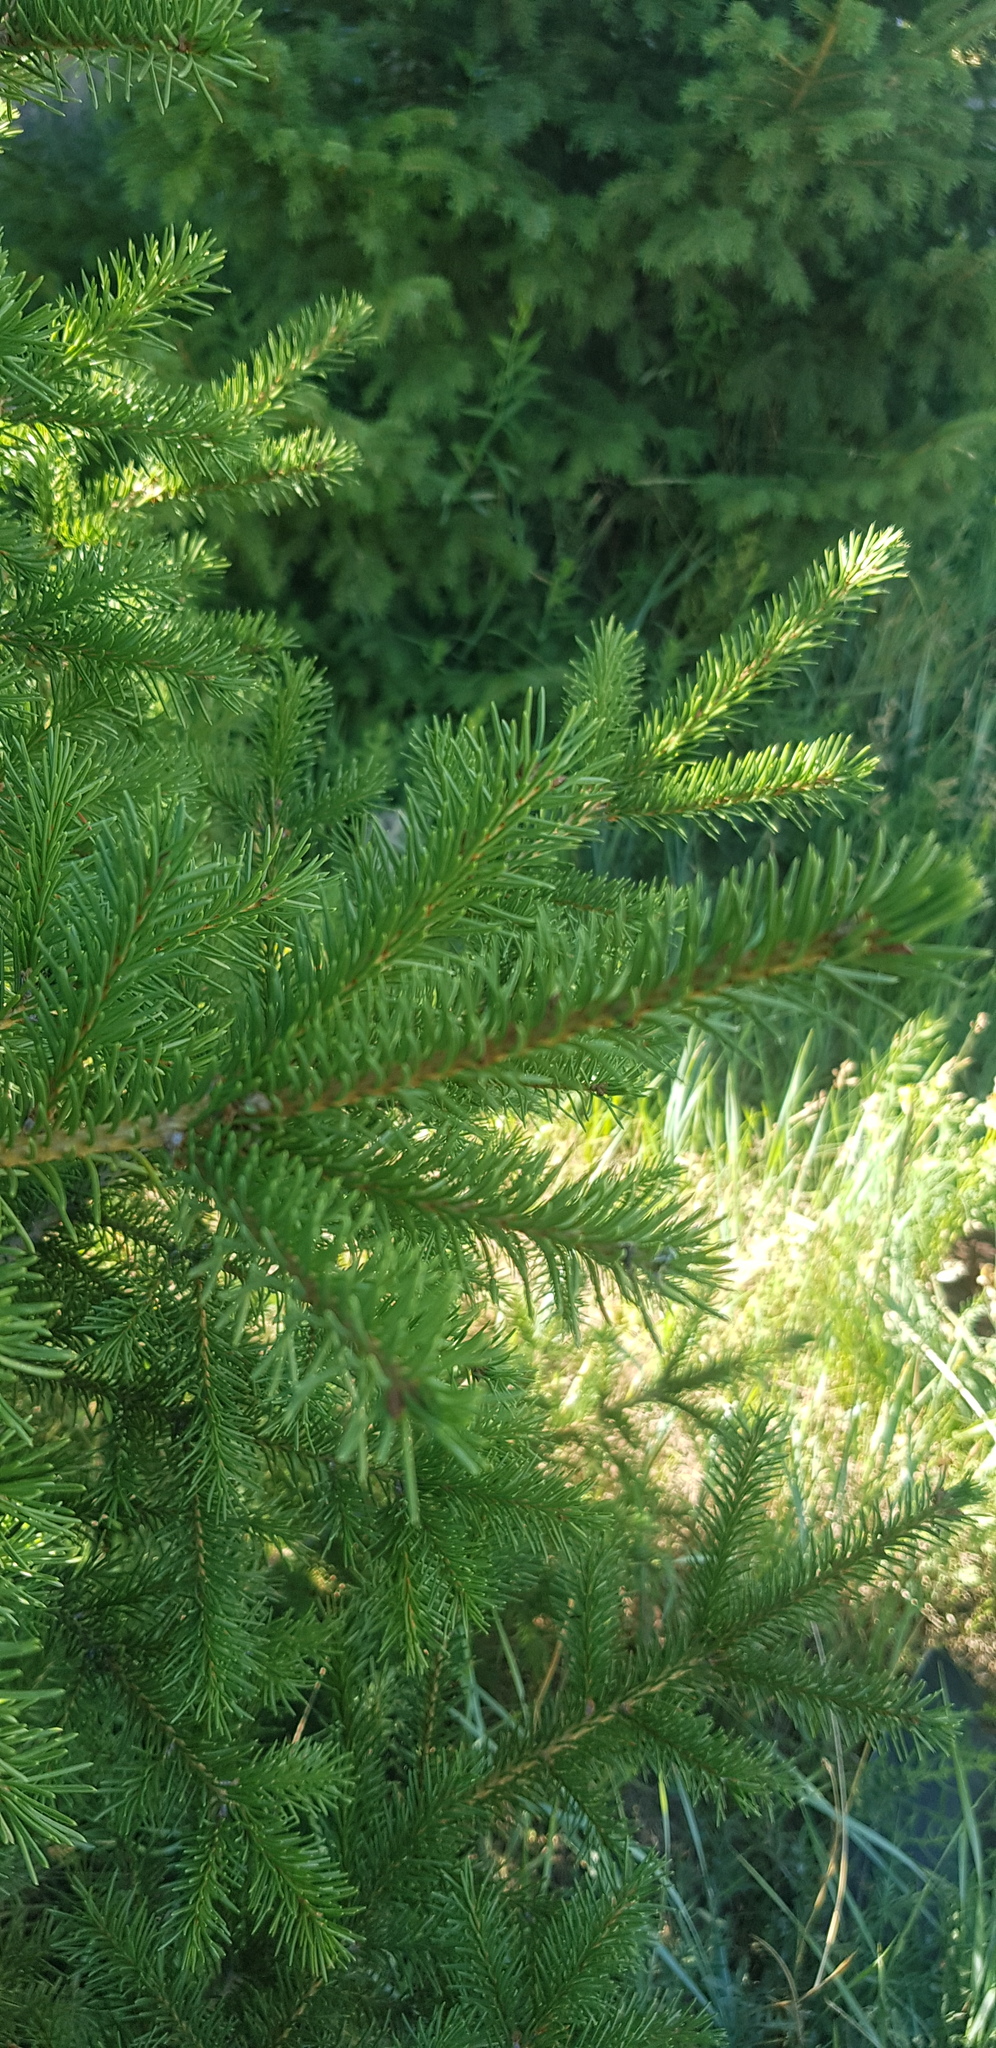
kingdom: Plantae
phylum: Tracheophyta
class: Pinopsida
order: Pinales
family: Pinaceae
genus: Picea
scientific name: Picea obovata
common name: Siberian spruce
